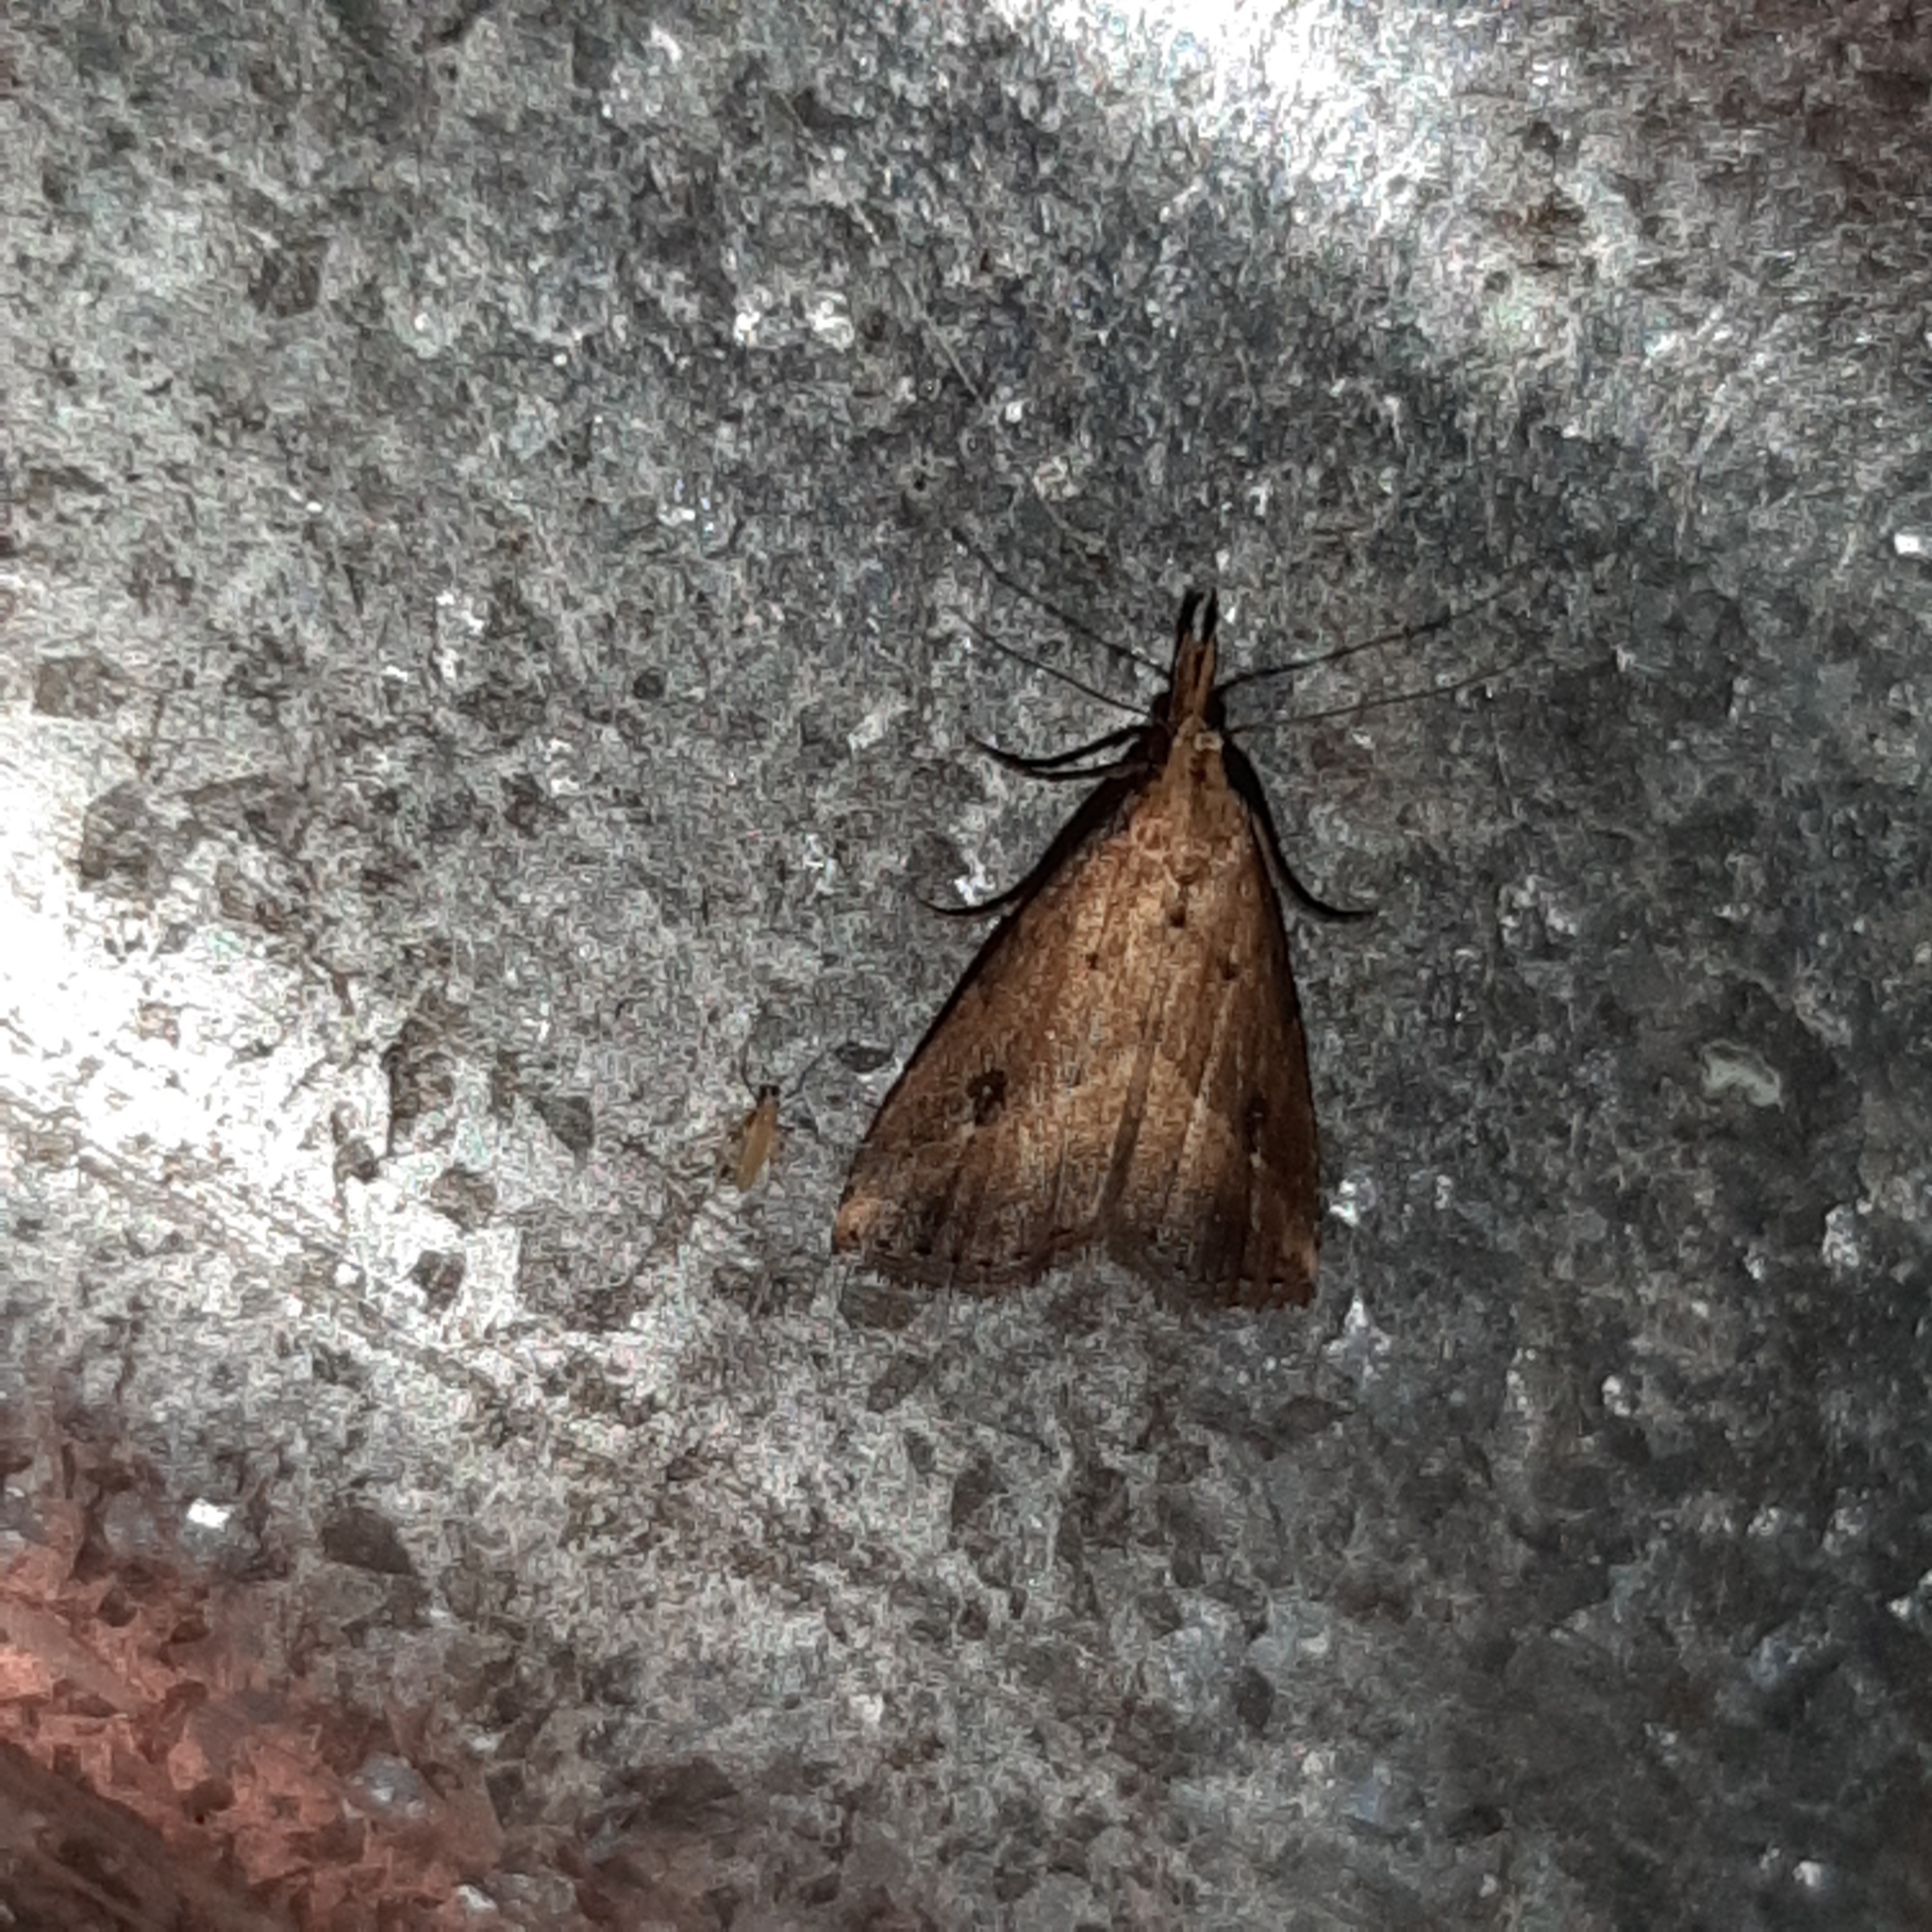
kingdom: Animalia
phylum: Arthropoda
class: Insecta
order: Lepidoptera
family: Erebidae
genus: Schrankia
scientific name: Schrankia
